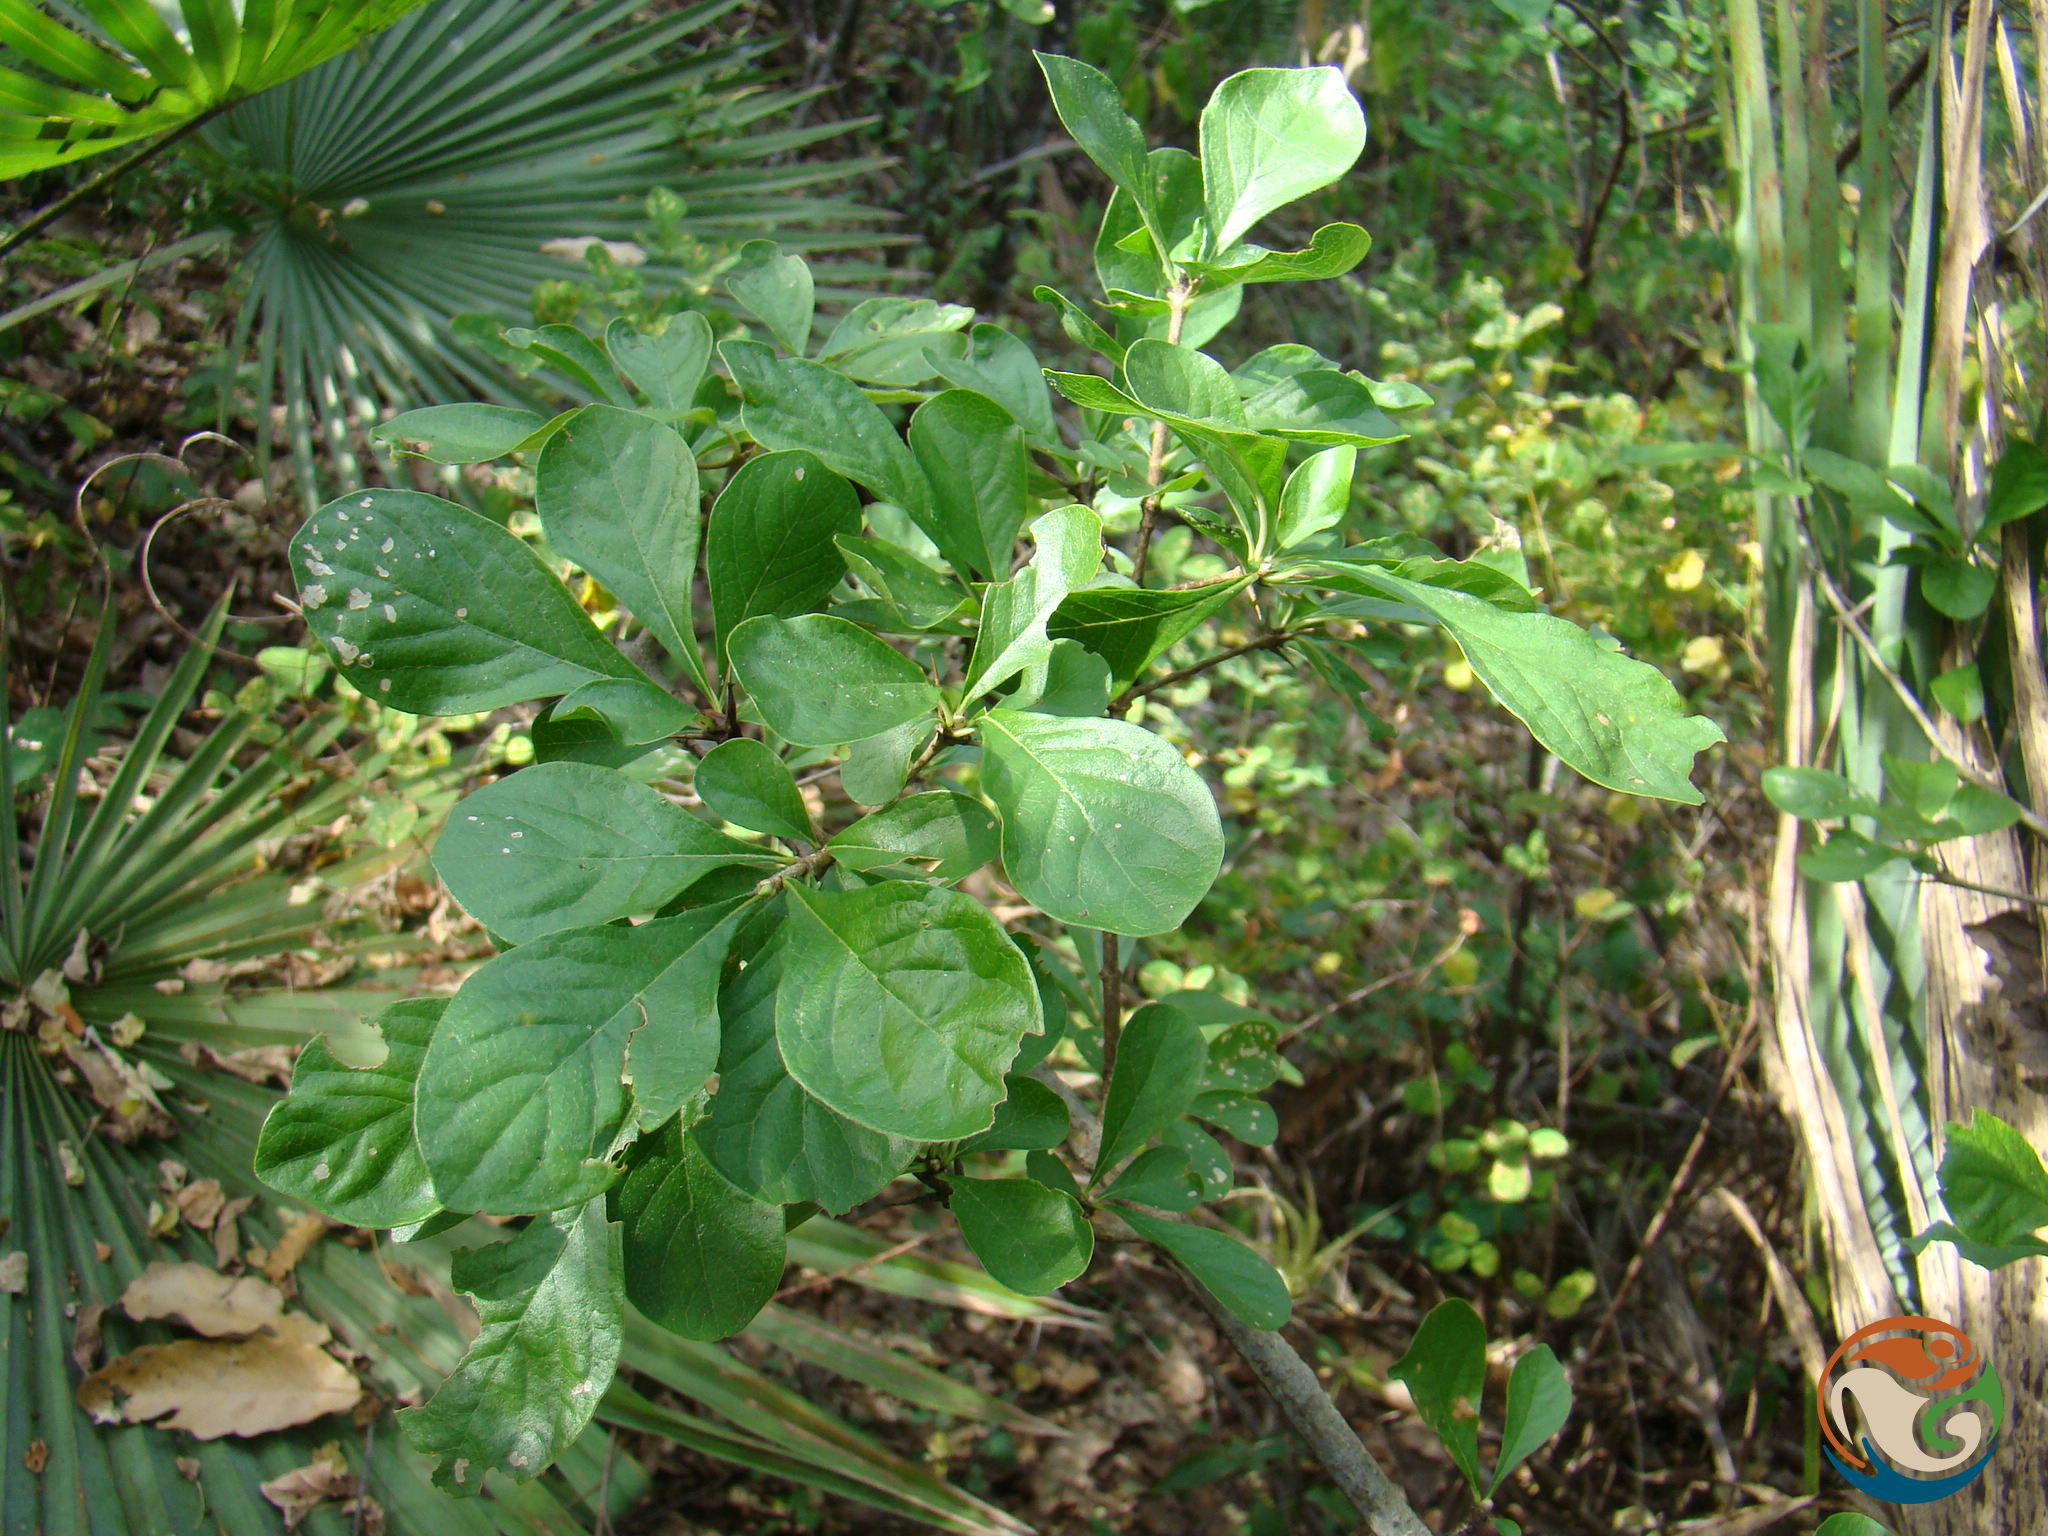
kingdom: Plantae
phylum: Tracheophyta
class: Magnoliopsida
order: Gentianales
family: Rubiaceae
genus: Randia
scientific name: Randia thurberi
